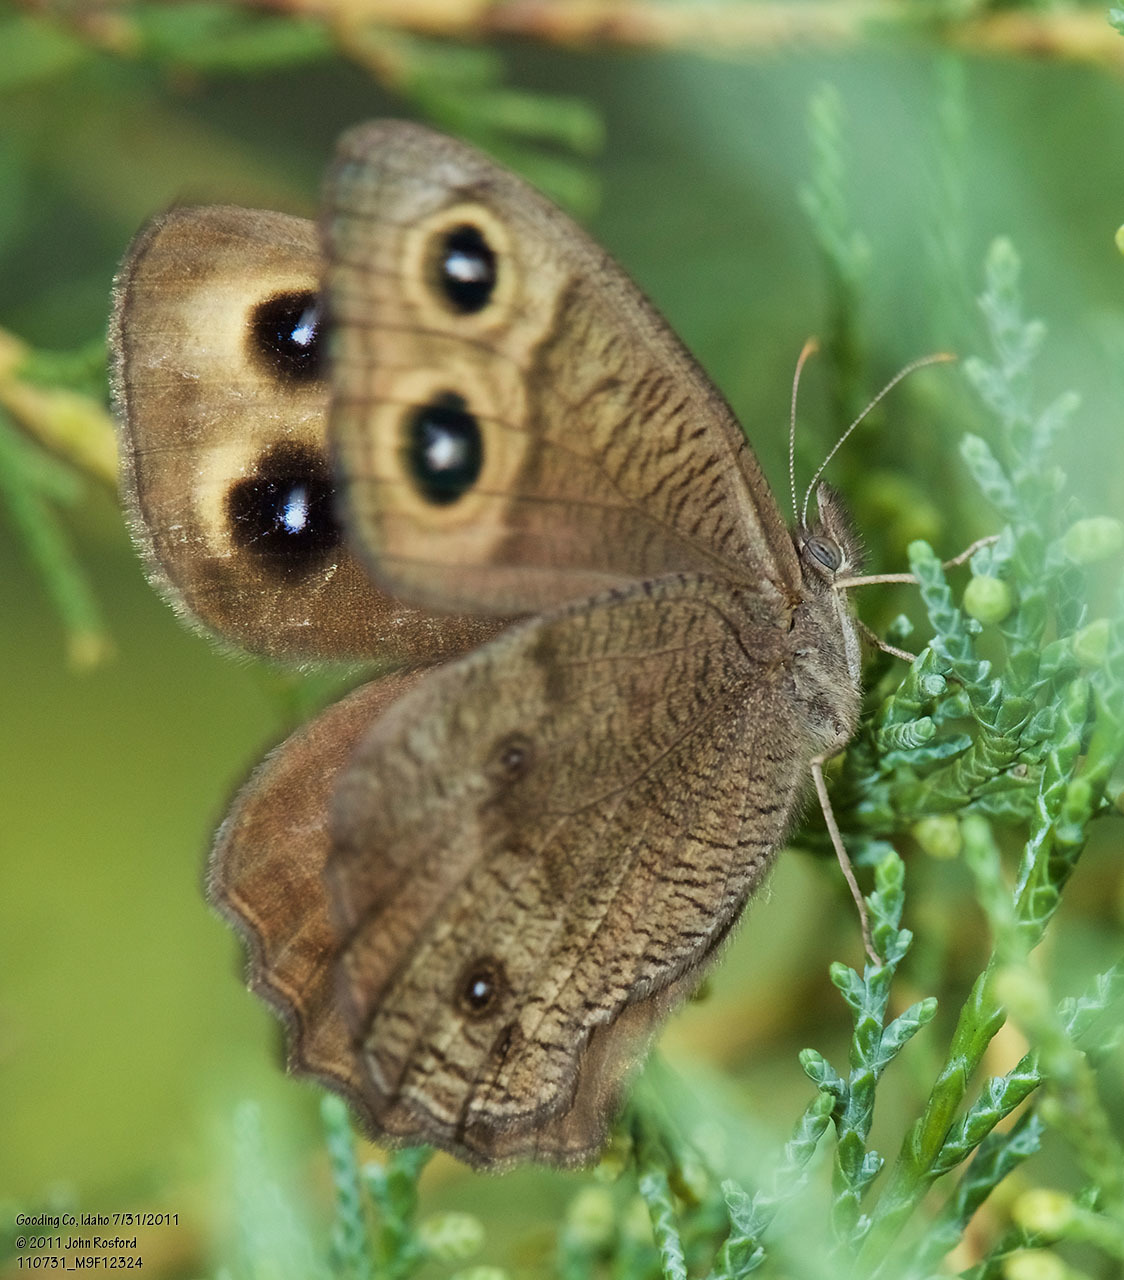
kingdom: Animalia
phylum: Arthropoda
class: Insecta
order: Lepidoptera
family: Nymphalidae
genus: Cercyonis
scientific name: Cercyonis pegala
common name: Common wood-nymph
